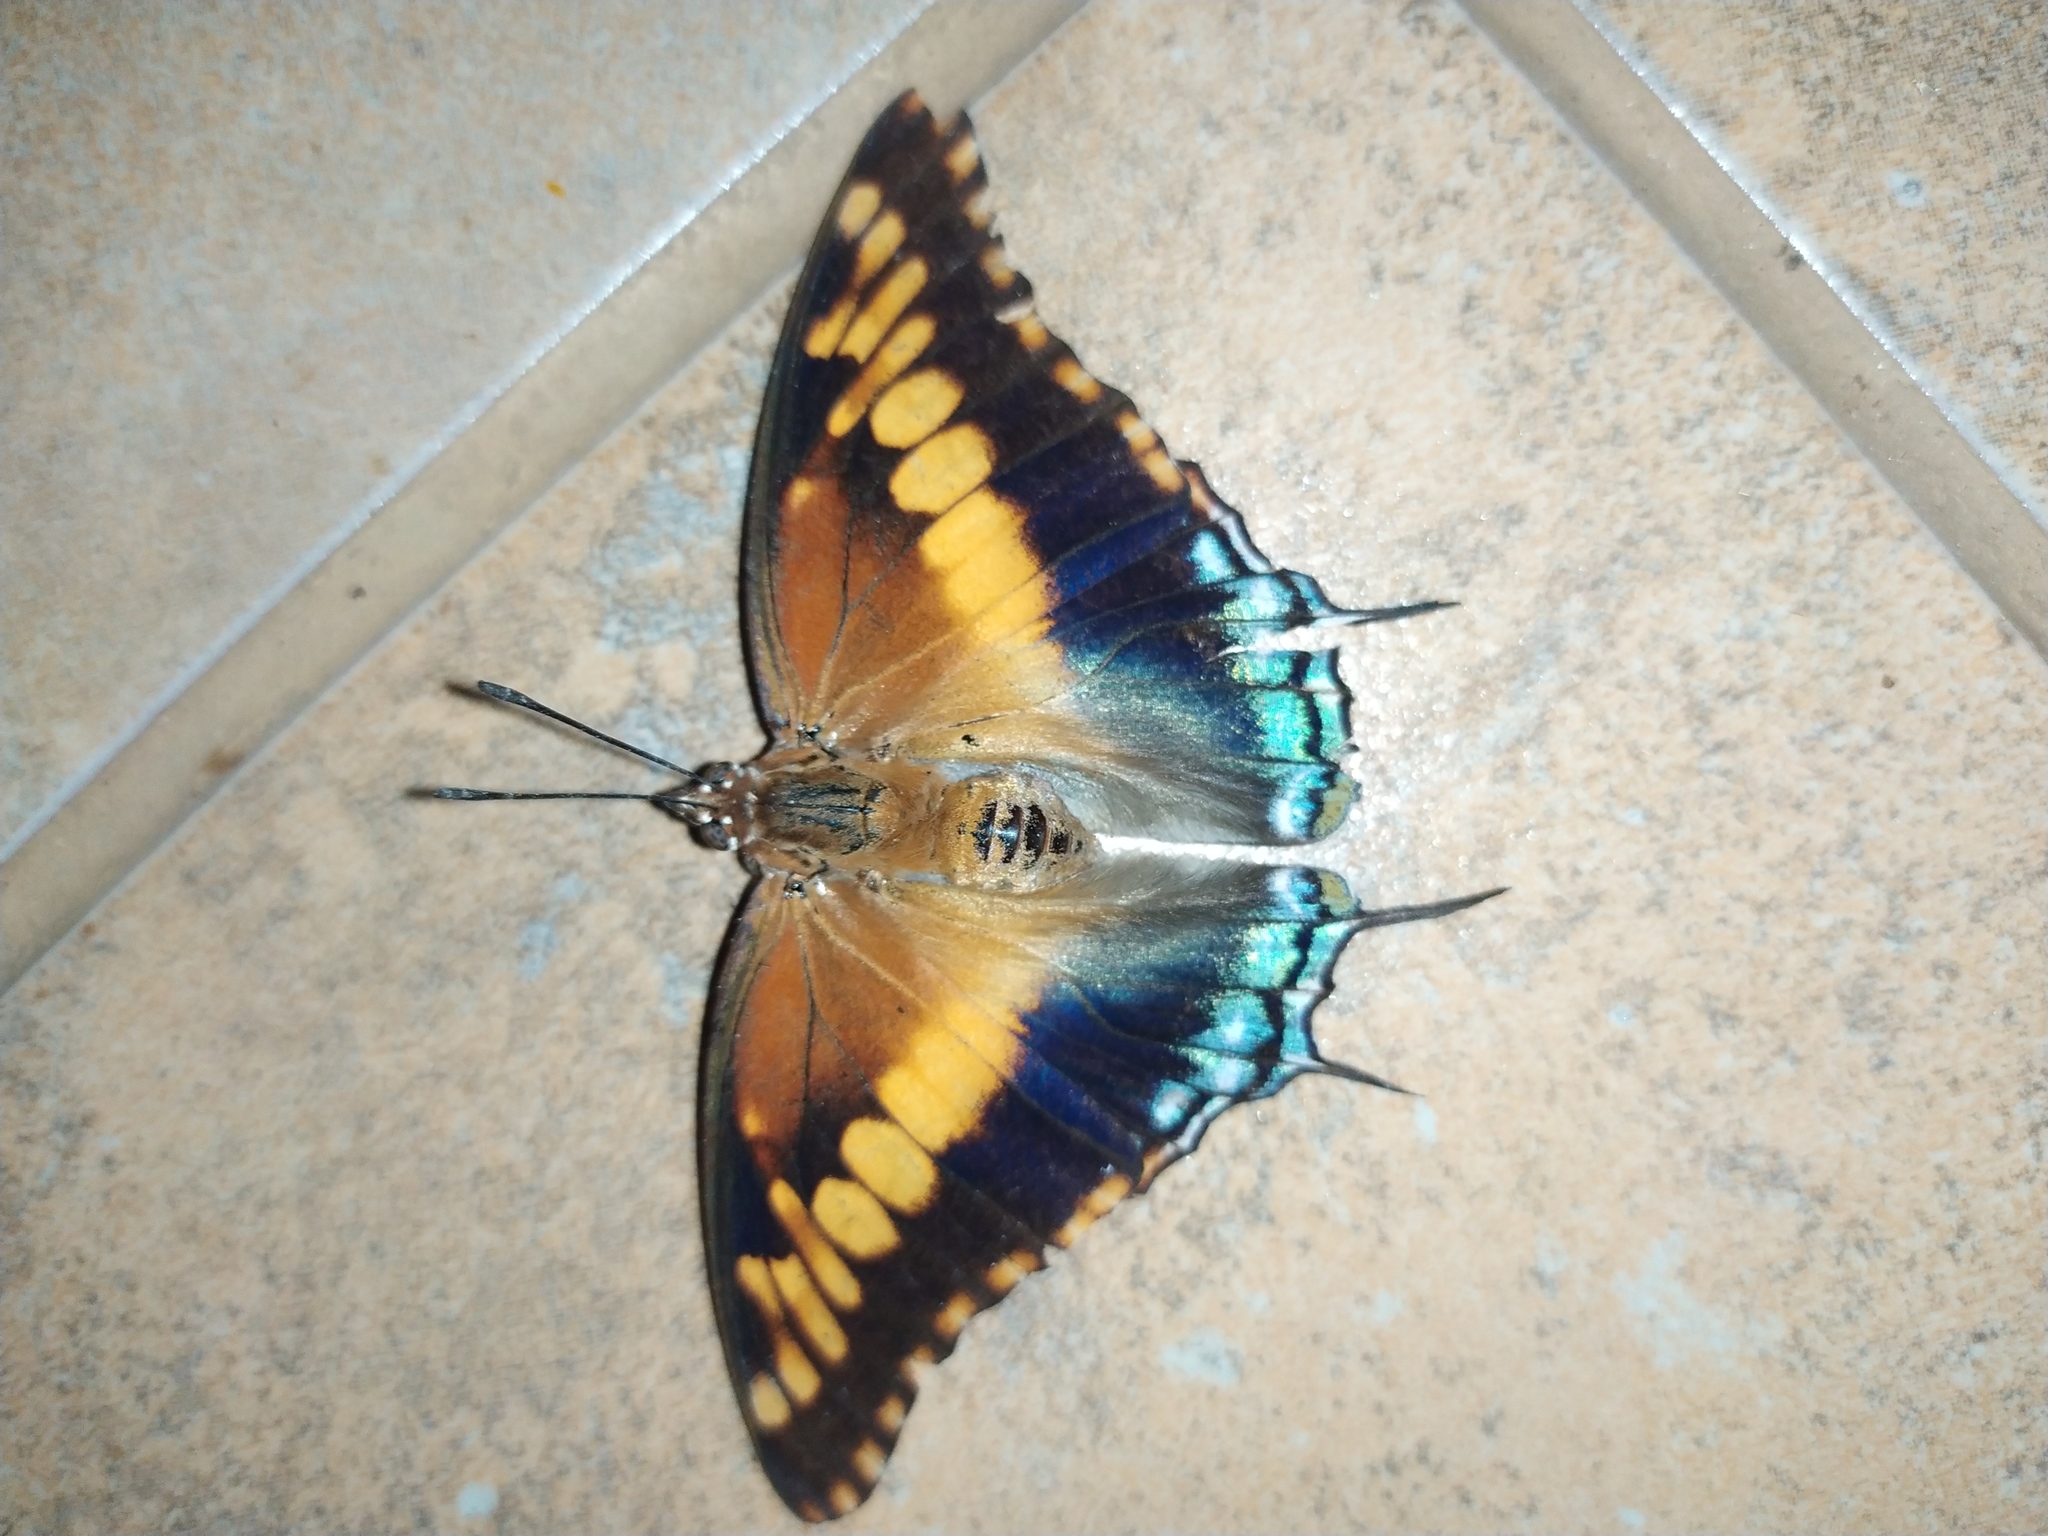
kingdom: Animalia
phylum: Arthropoda
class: Insecta
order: Lepidoptera
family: Nymphalidae
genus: Charaxes
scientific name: Charaxes achaemenes
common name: Bushveld charaxes
